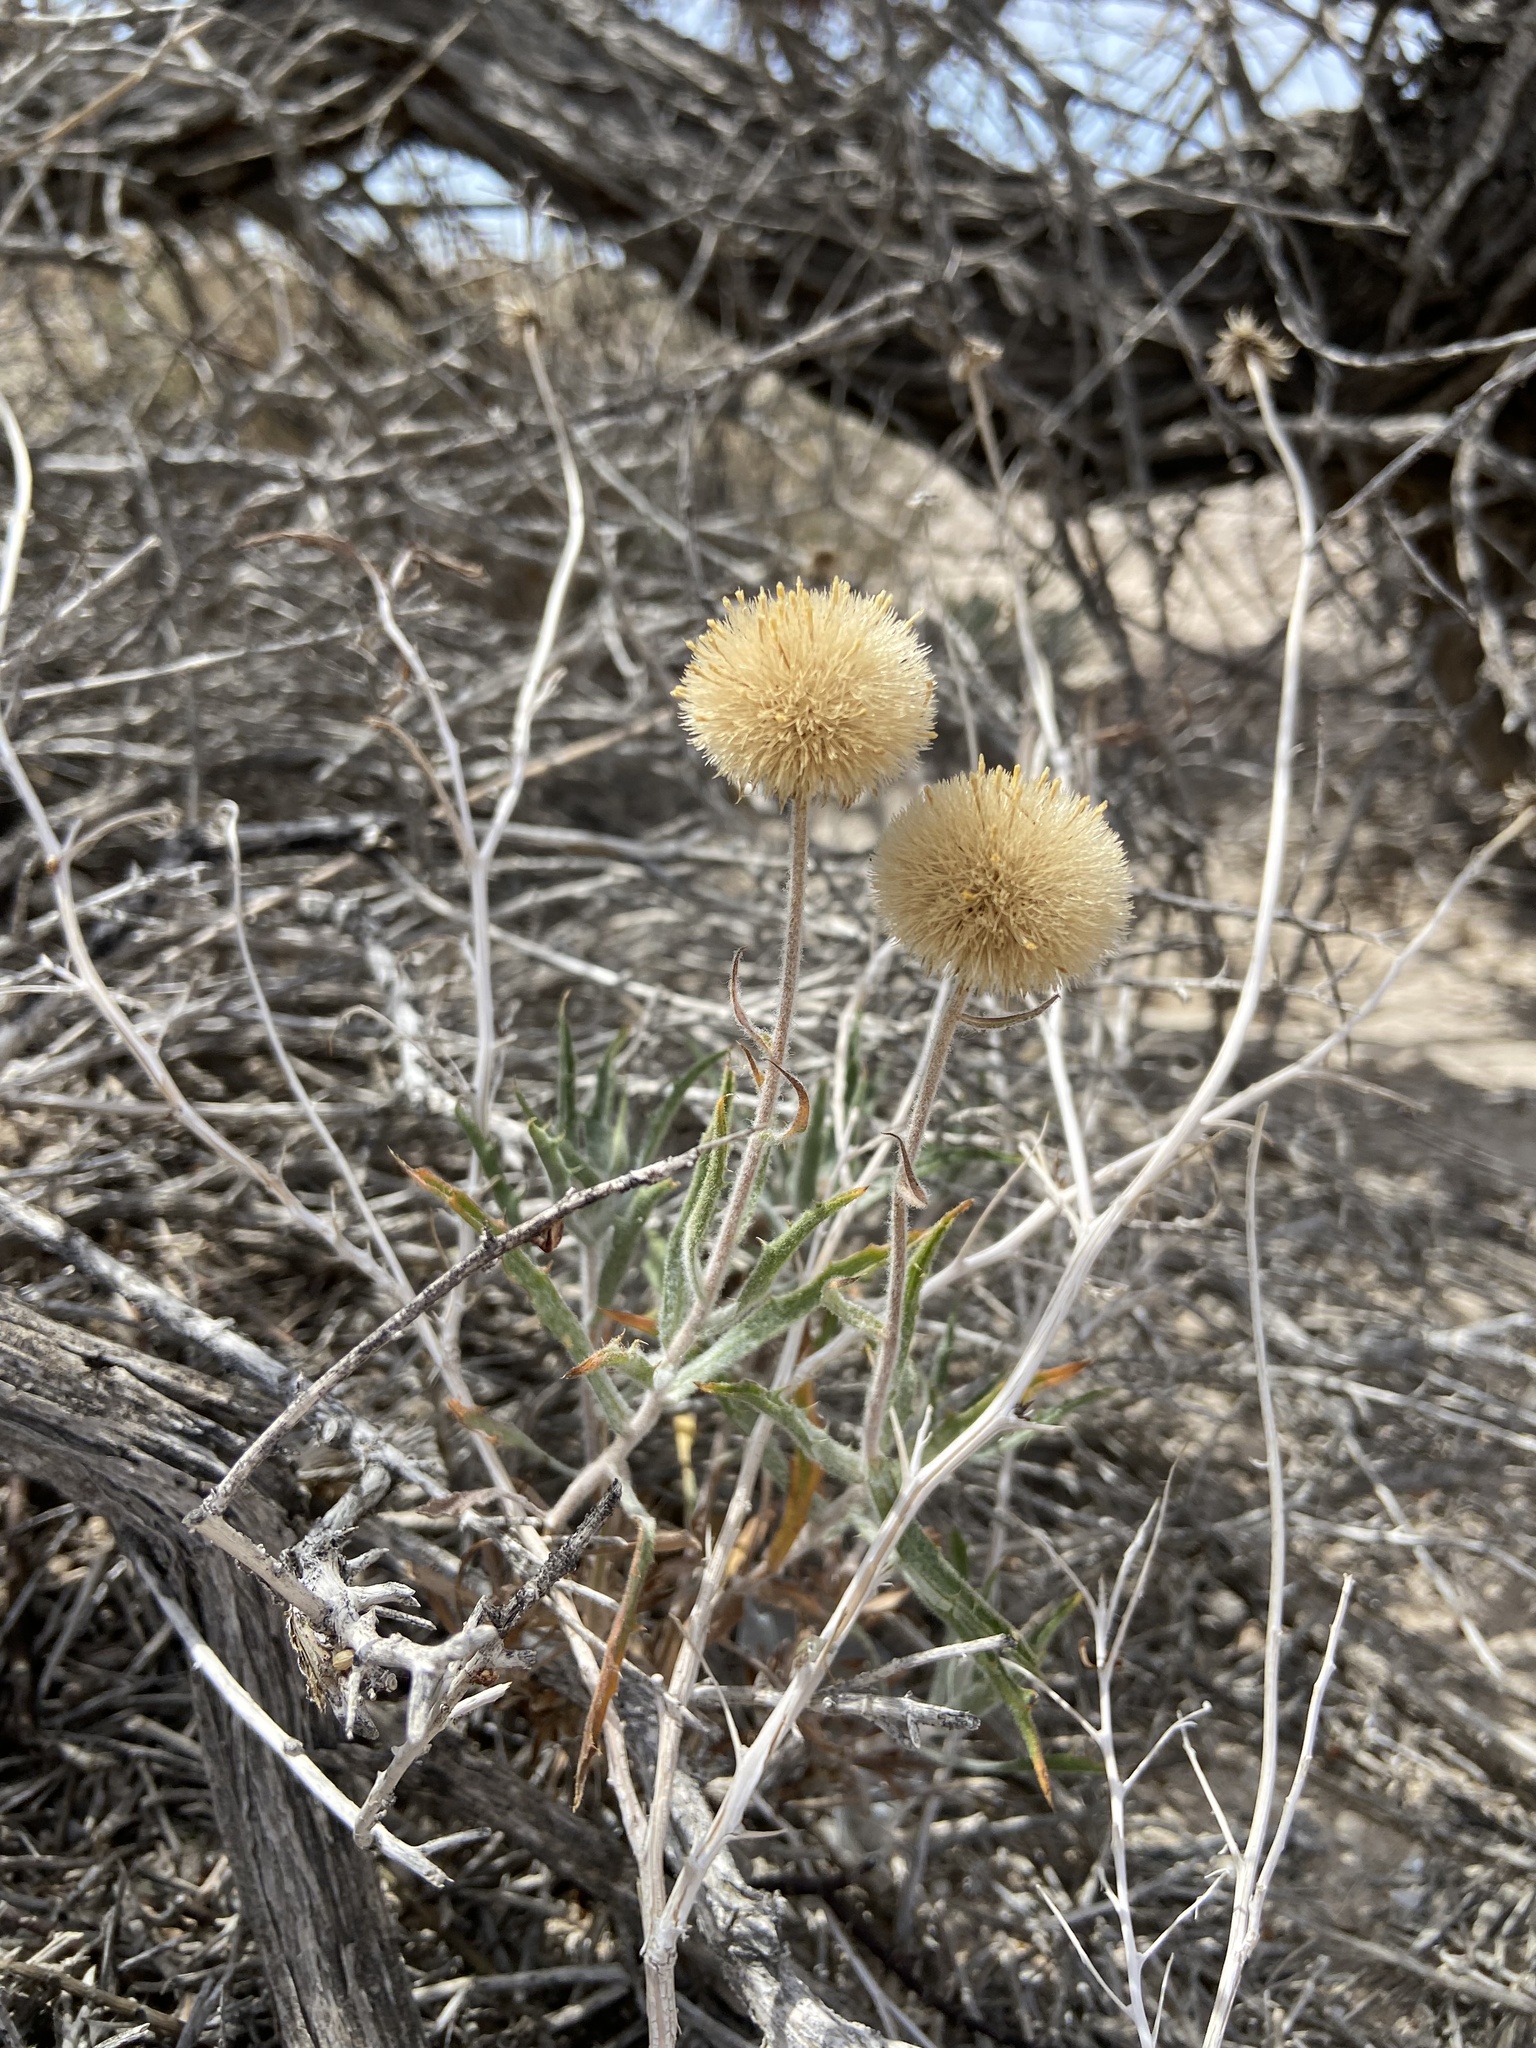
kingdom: Plantae
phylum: Tracheophyta
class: Magnoliopsida
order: Asterales
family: Asteraceae
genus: Xylorhiza
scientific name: Xylorhiza tortifolia
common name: Hurt-leaf woody-aster
